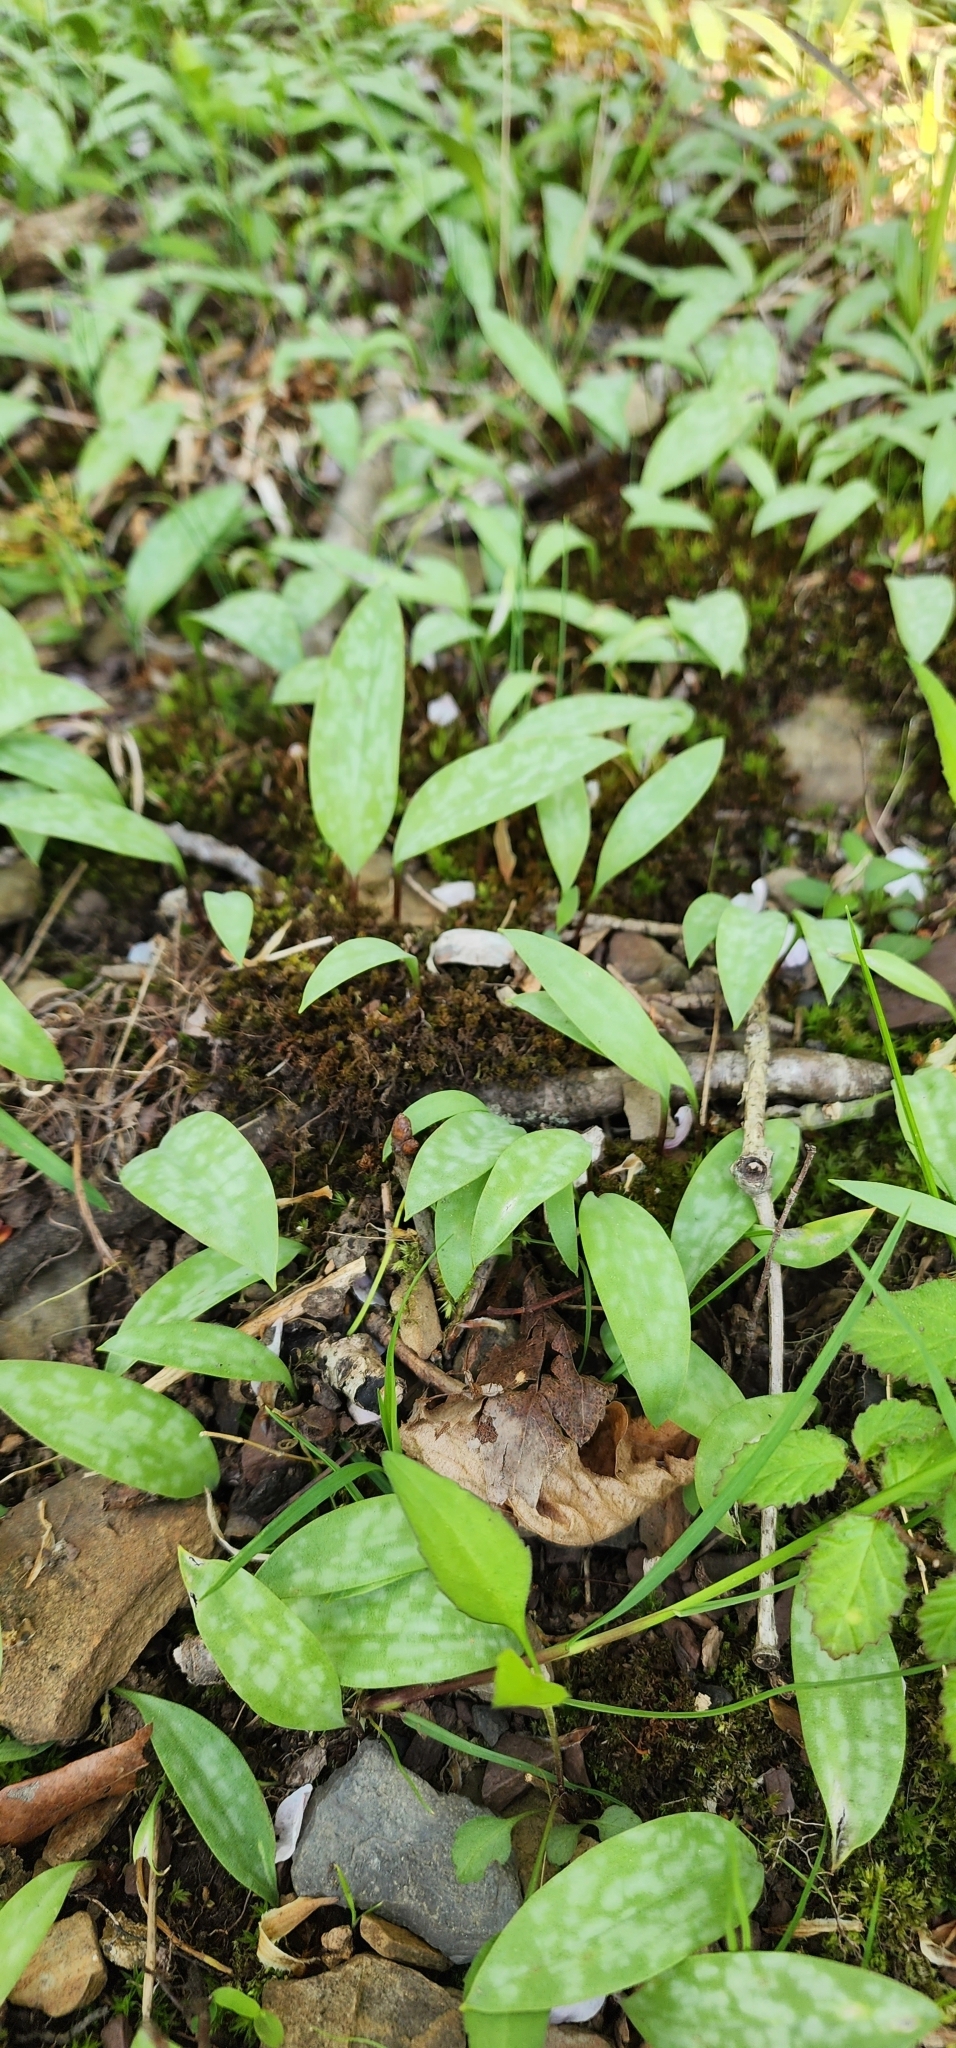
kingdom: Plantae
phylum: Tracheophyta
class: Liliopsida
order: Liliales
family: Liliaceae
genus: Erythronium
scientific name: Erythronium americanum
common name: Yellow adder's-tongue
